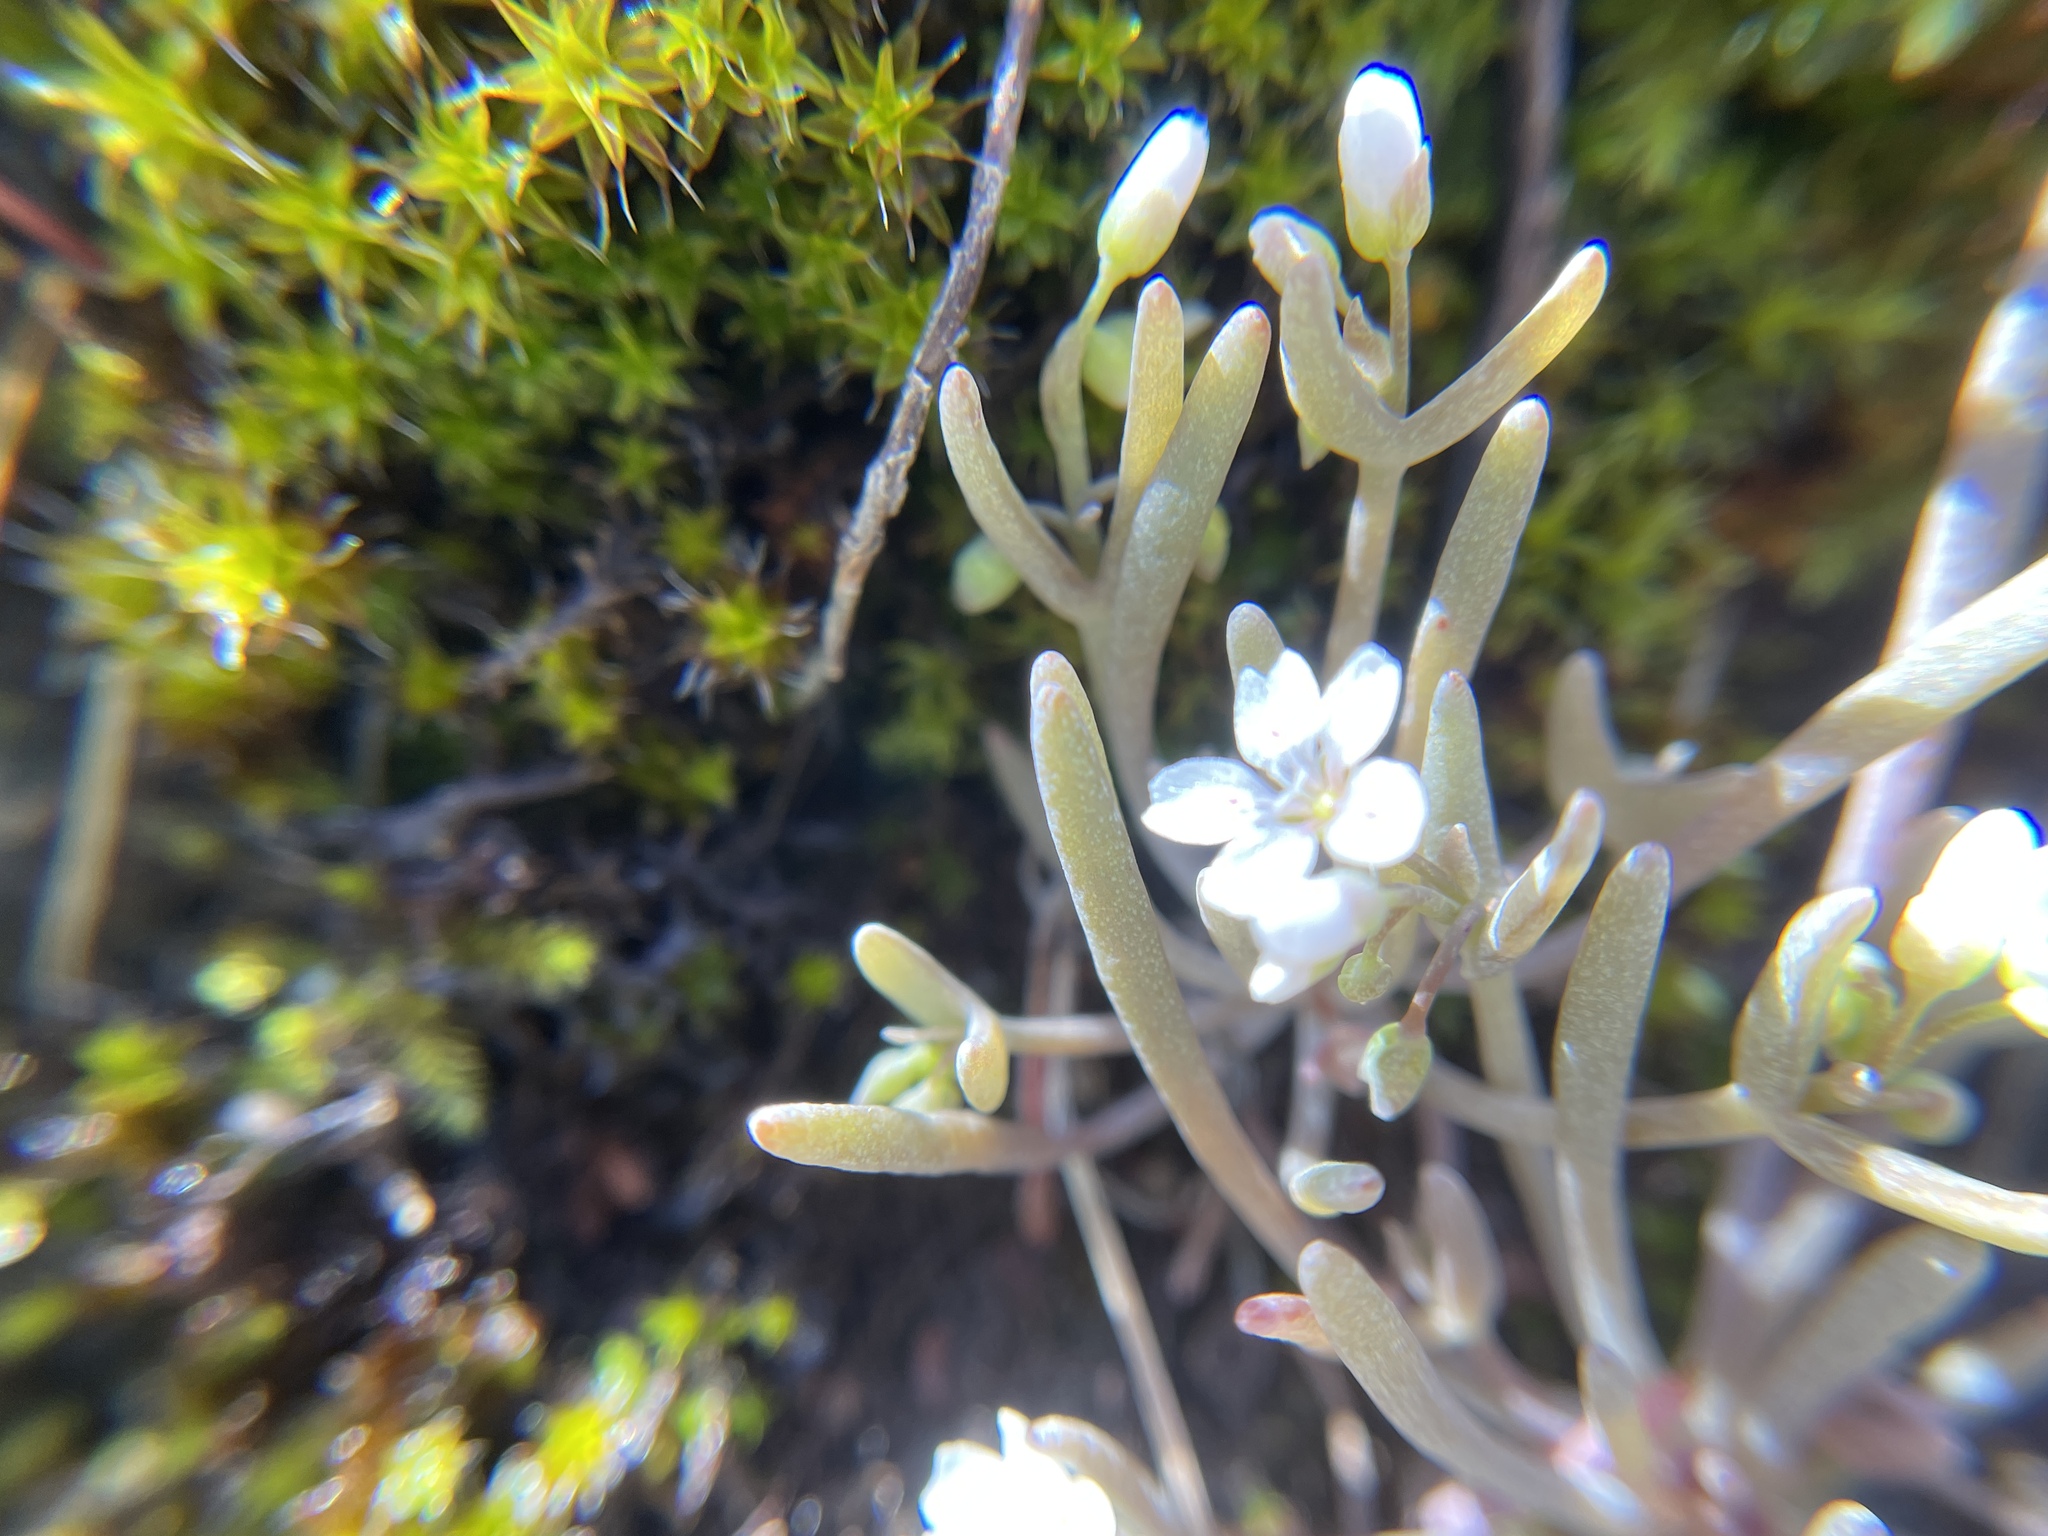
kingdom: Plantae
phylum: Tracheophyta
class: Magnoliopsida
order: Caryophyllales
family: Montiaceae
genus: Claytonia
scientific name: Claytonia exigua
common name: Pale spring beauty
